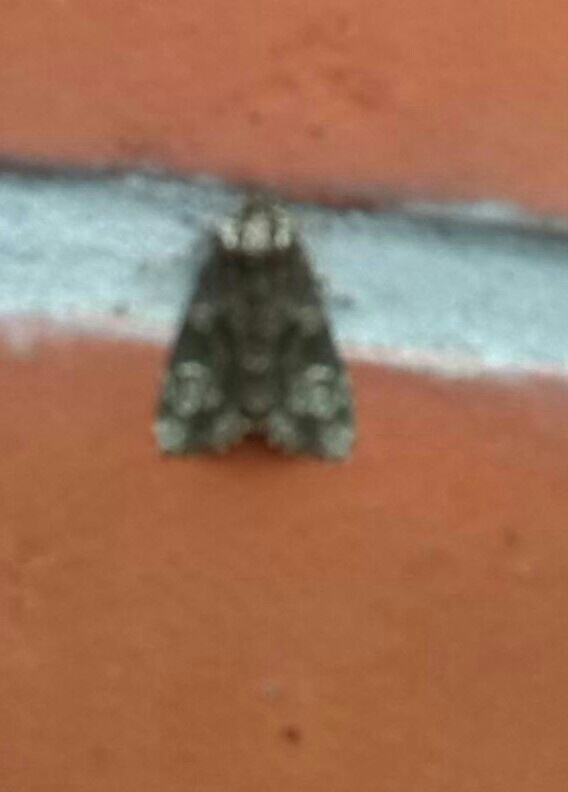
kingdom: Animalia
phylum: Arthropoda
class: Insecta
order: Lepidoptera
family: Noctuidae
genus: Craniophora
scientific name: Craniophora ligustri
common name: Coronet
